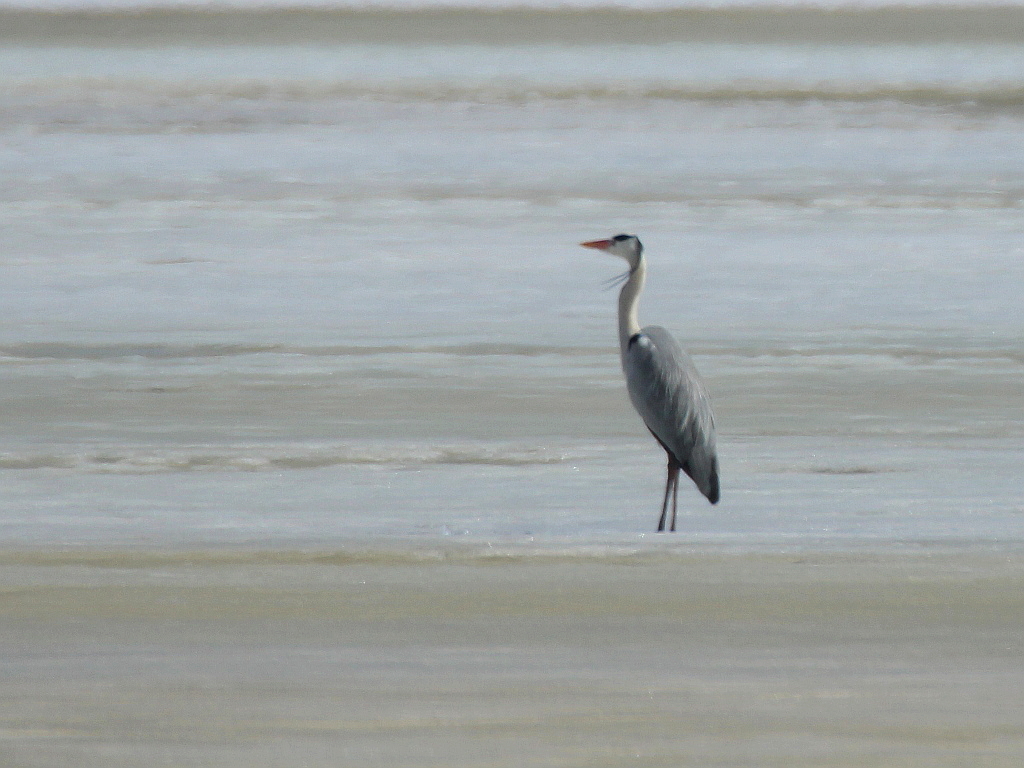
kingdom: Animalia
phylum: Chordata
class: Aves
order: Pelecaniformes
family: Ardeidae
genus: Ardea
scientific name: Ardea cinerea
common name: Grey heron
